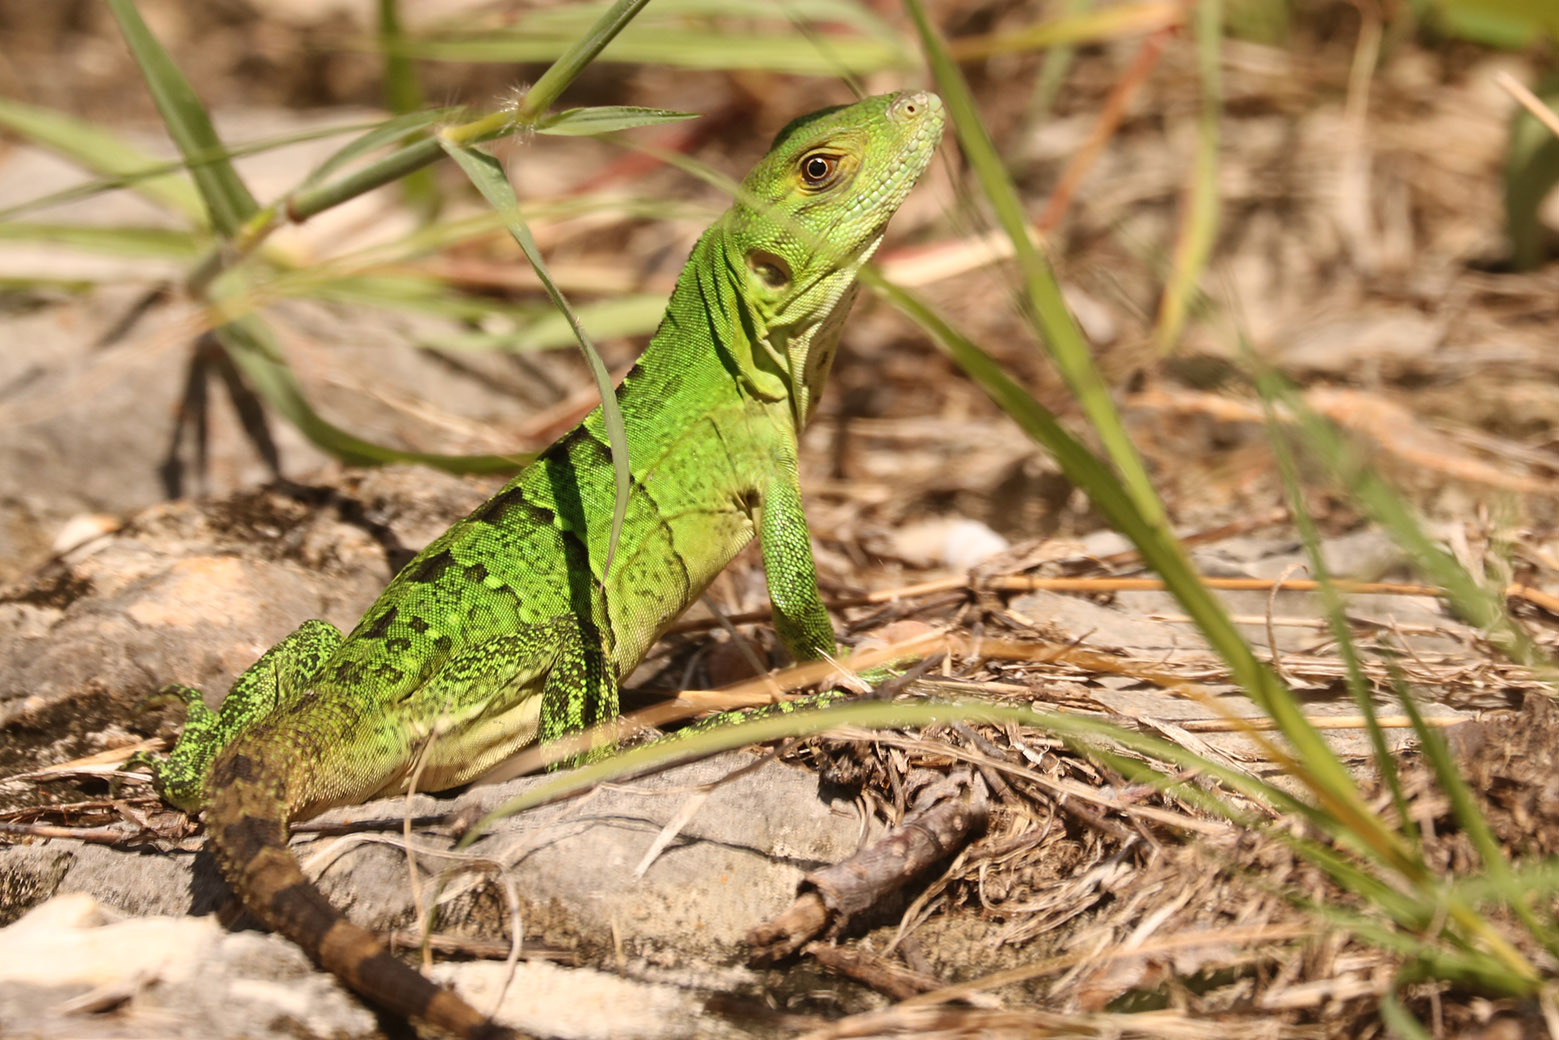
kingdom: Animalia
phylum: Chordata
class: Squamata
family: Iguanidae
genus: Ctenosaura
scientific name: Ctenosaura similis
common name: Black spiny-tailed iguana
